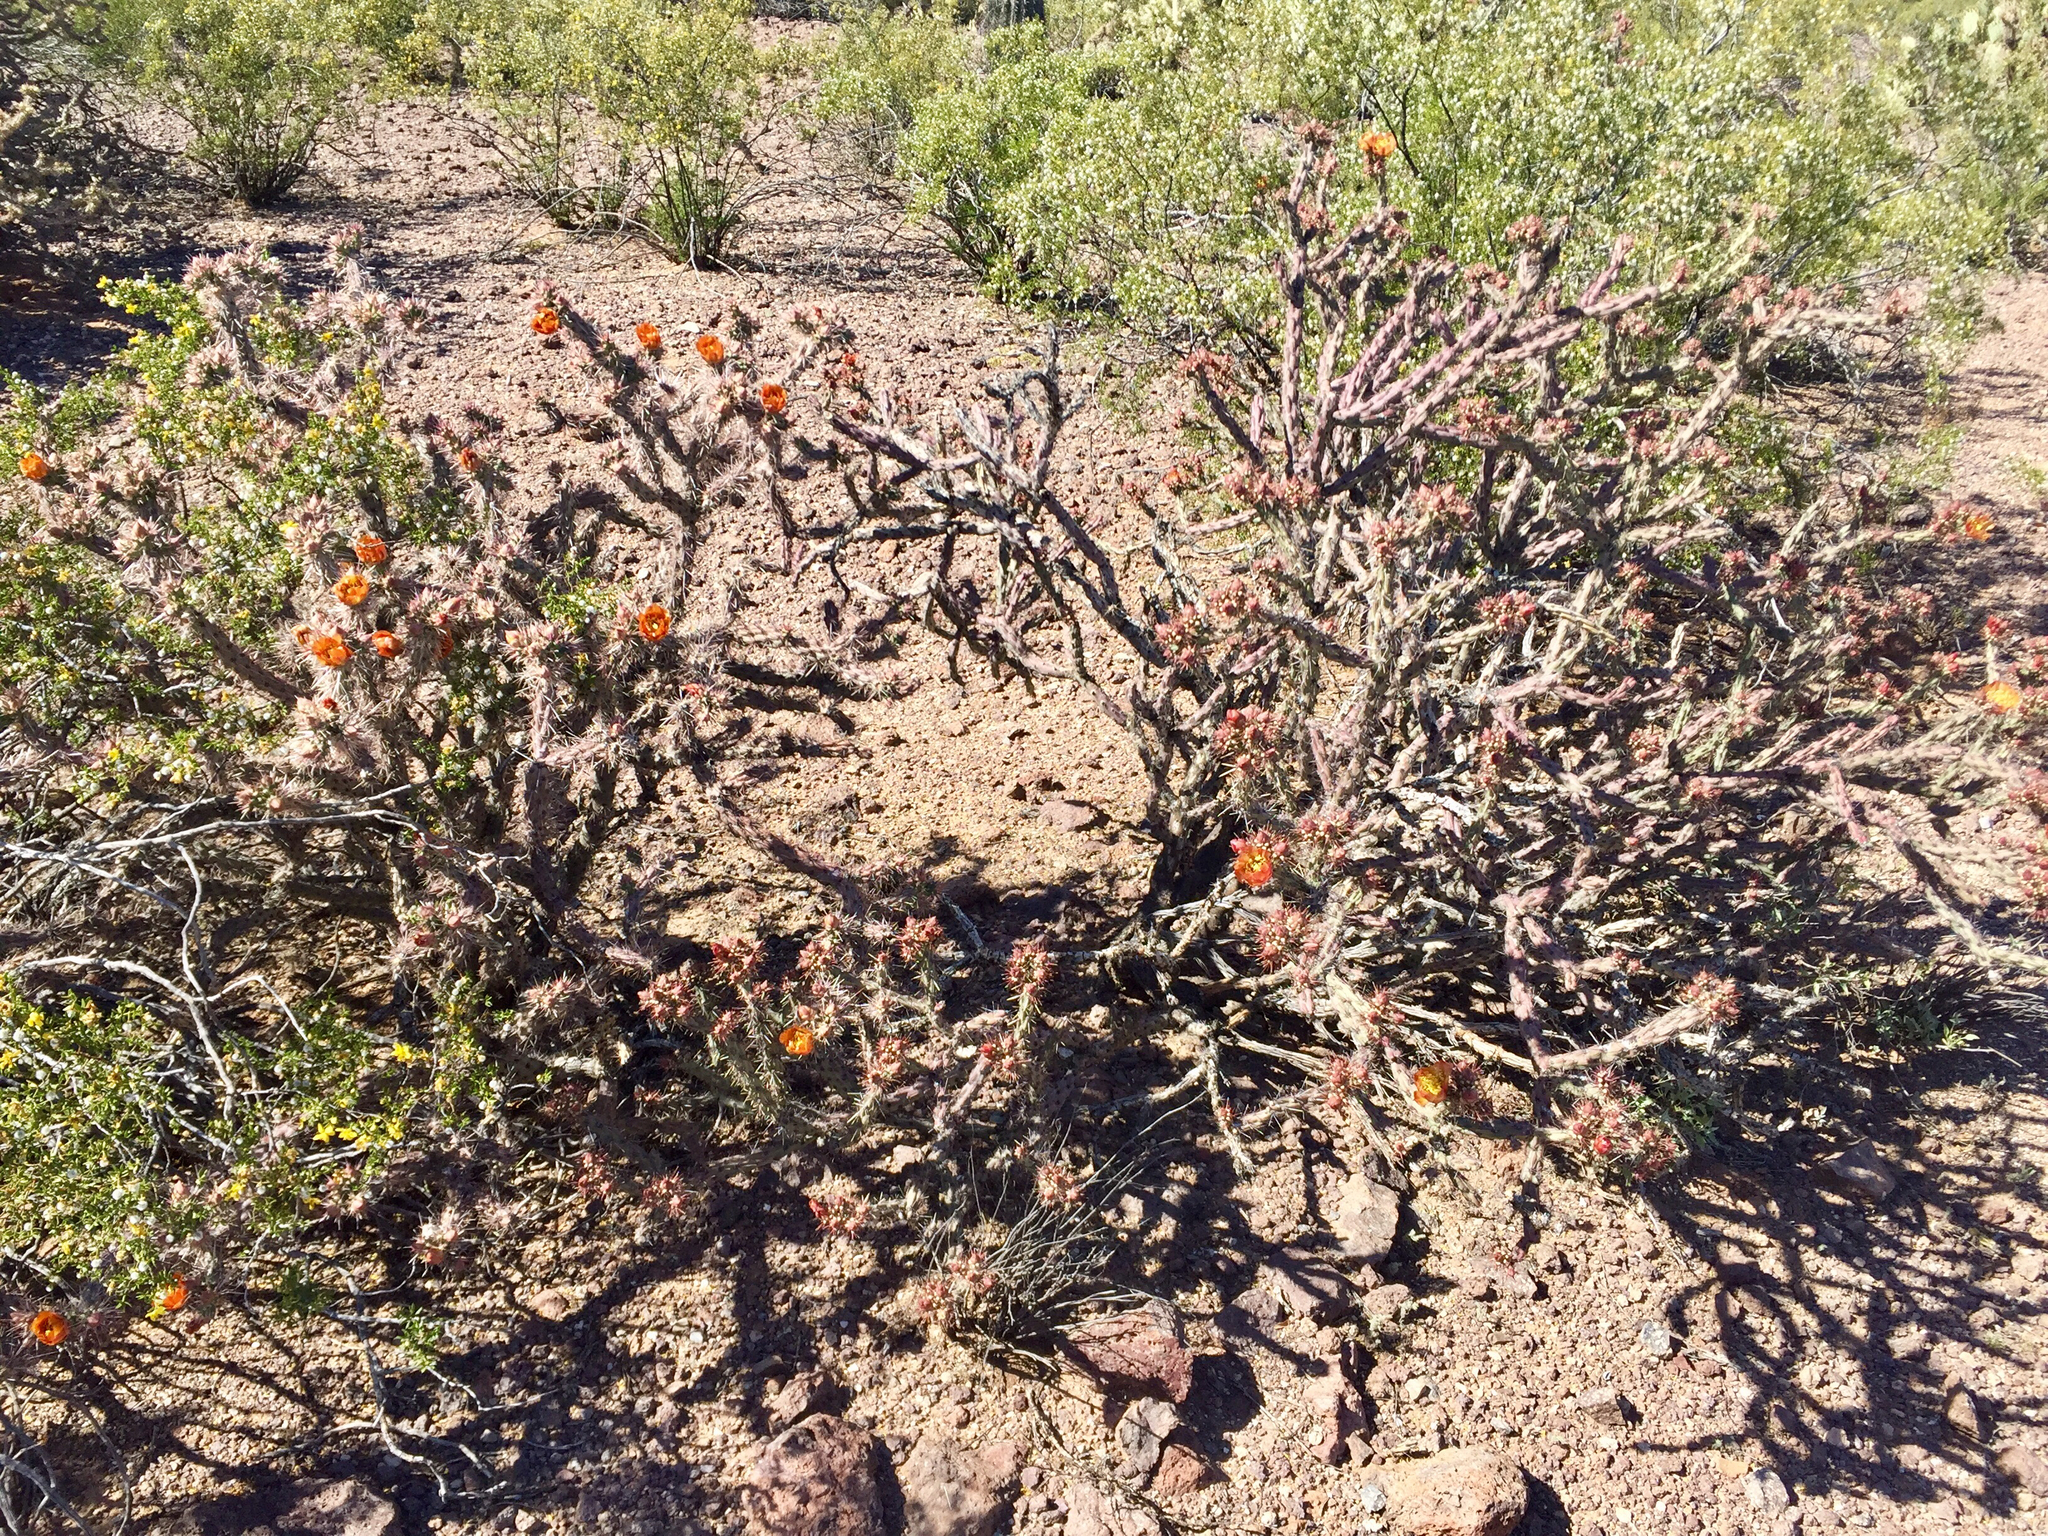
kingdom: Plantae
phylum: Tracheophyta
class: Magnoliopsida
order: Caryophyllales
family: Cactaceae
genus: Cylindropuntia
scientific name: Cylindropuntia acanthocarpa
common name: Buckhorn cholla
